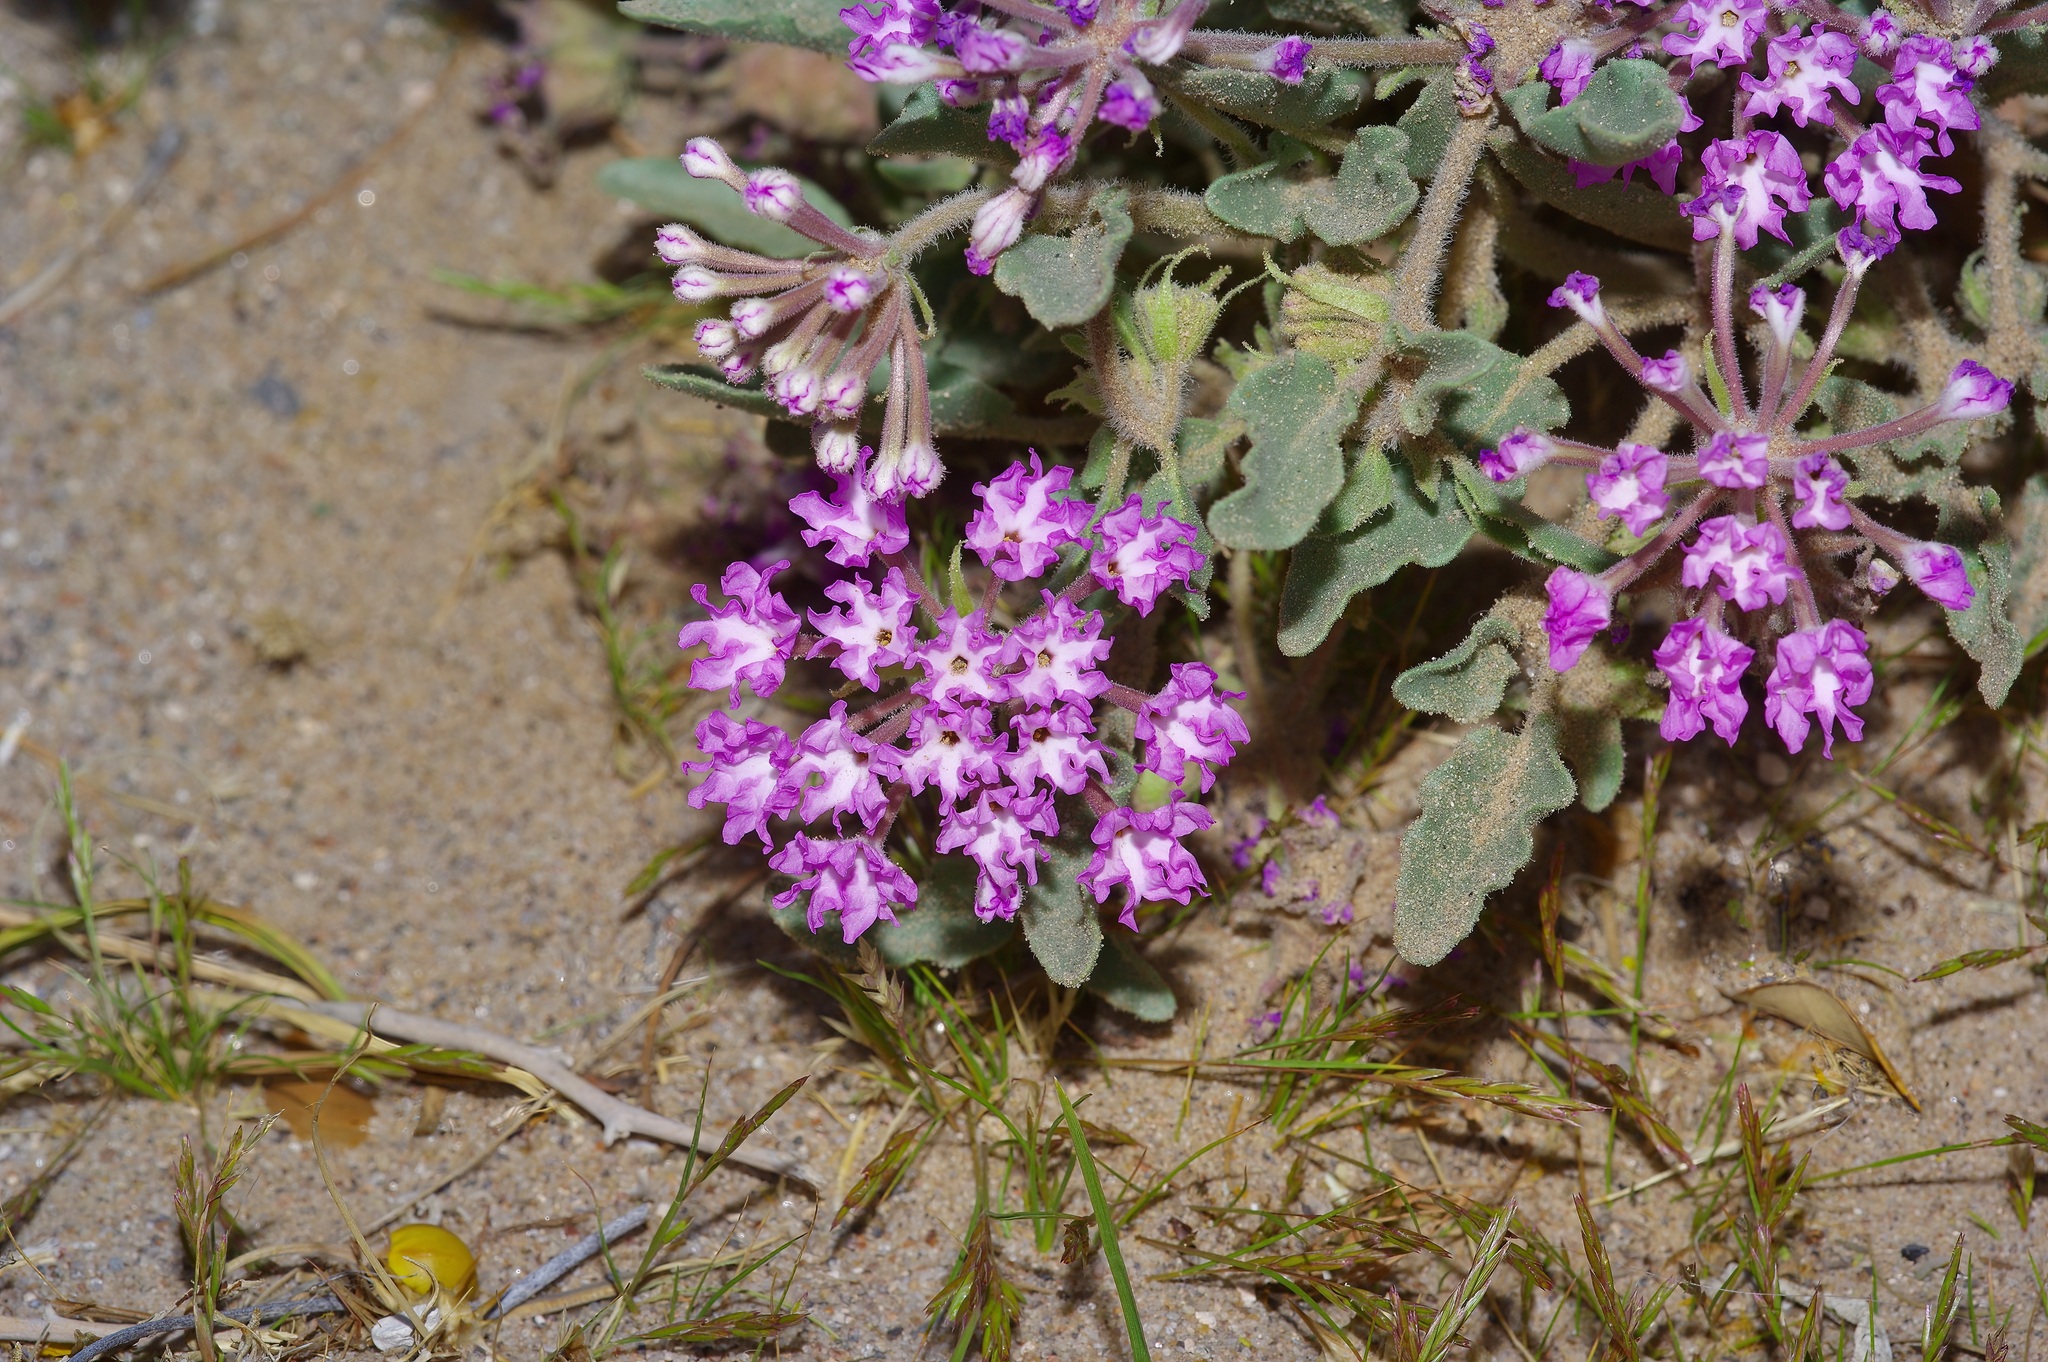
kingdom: Plantae
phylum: Tracheophyta
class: Magnoliopsida
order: Caryophyllales
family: Nyctaginaceae
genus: Abronia
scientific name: Abronia angustifolia
